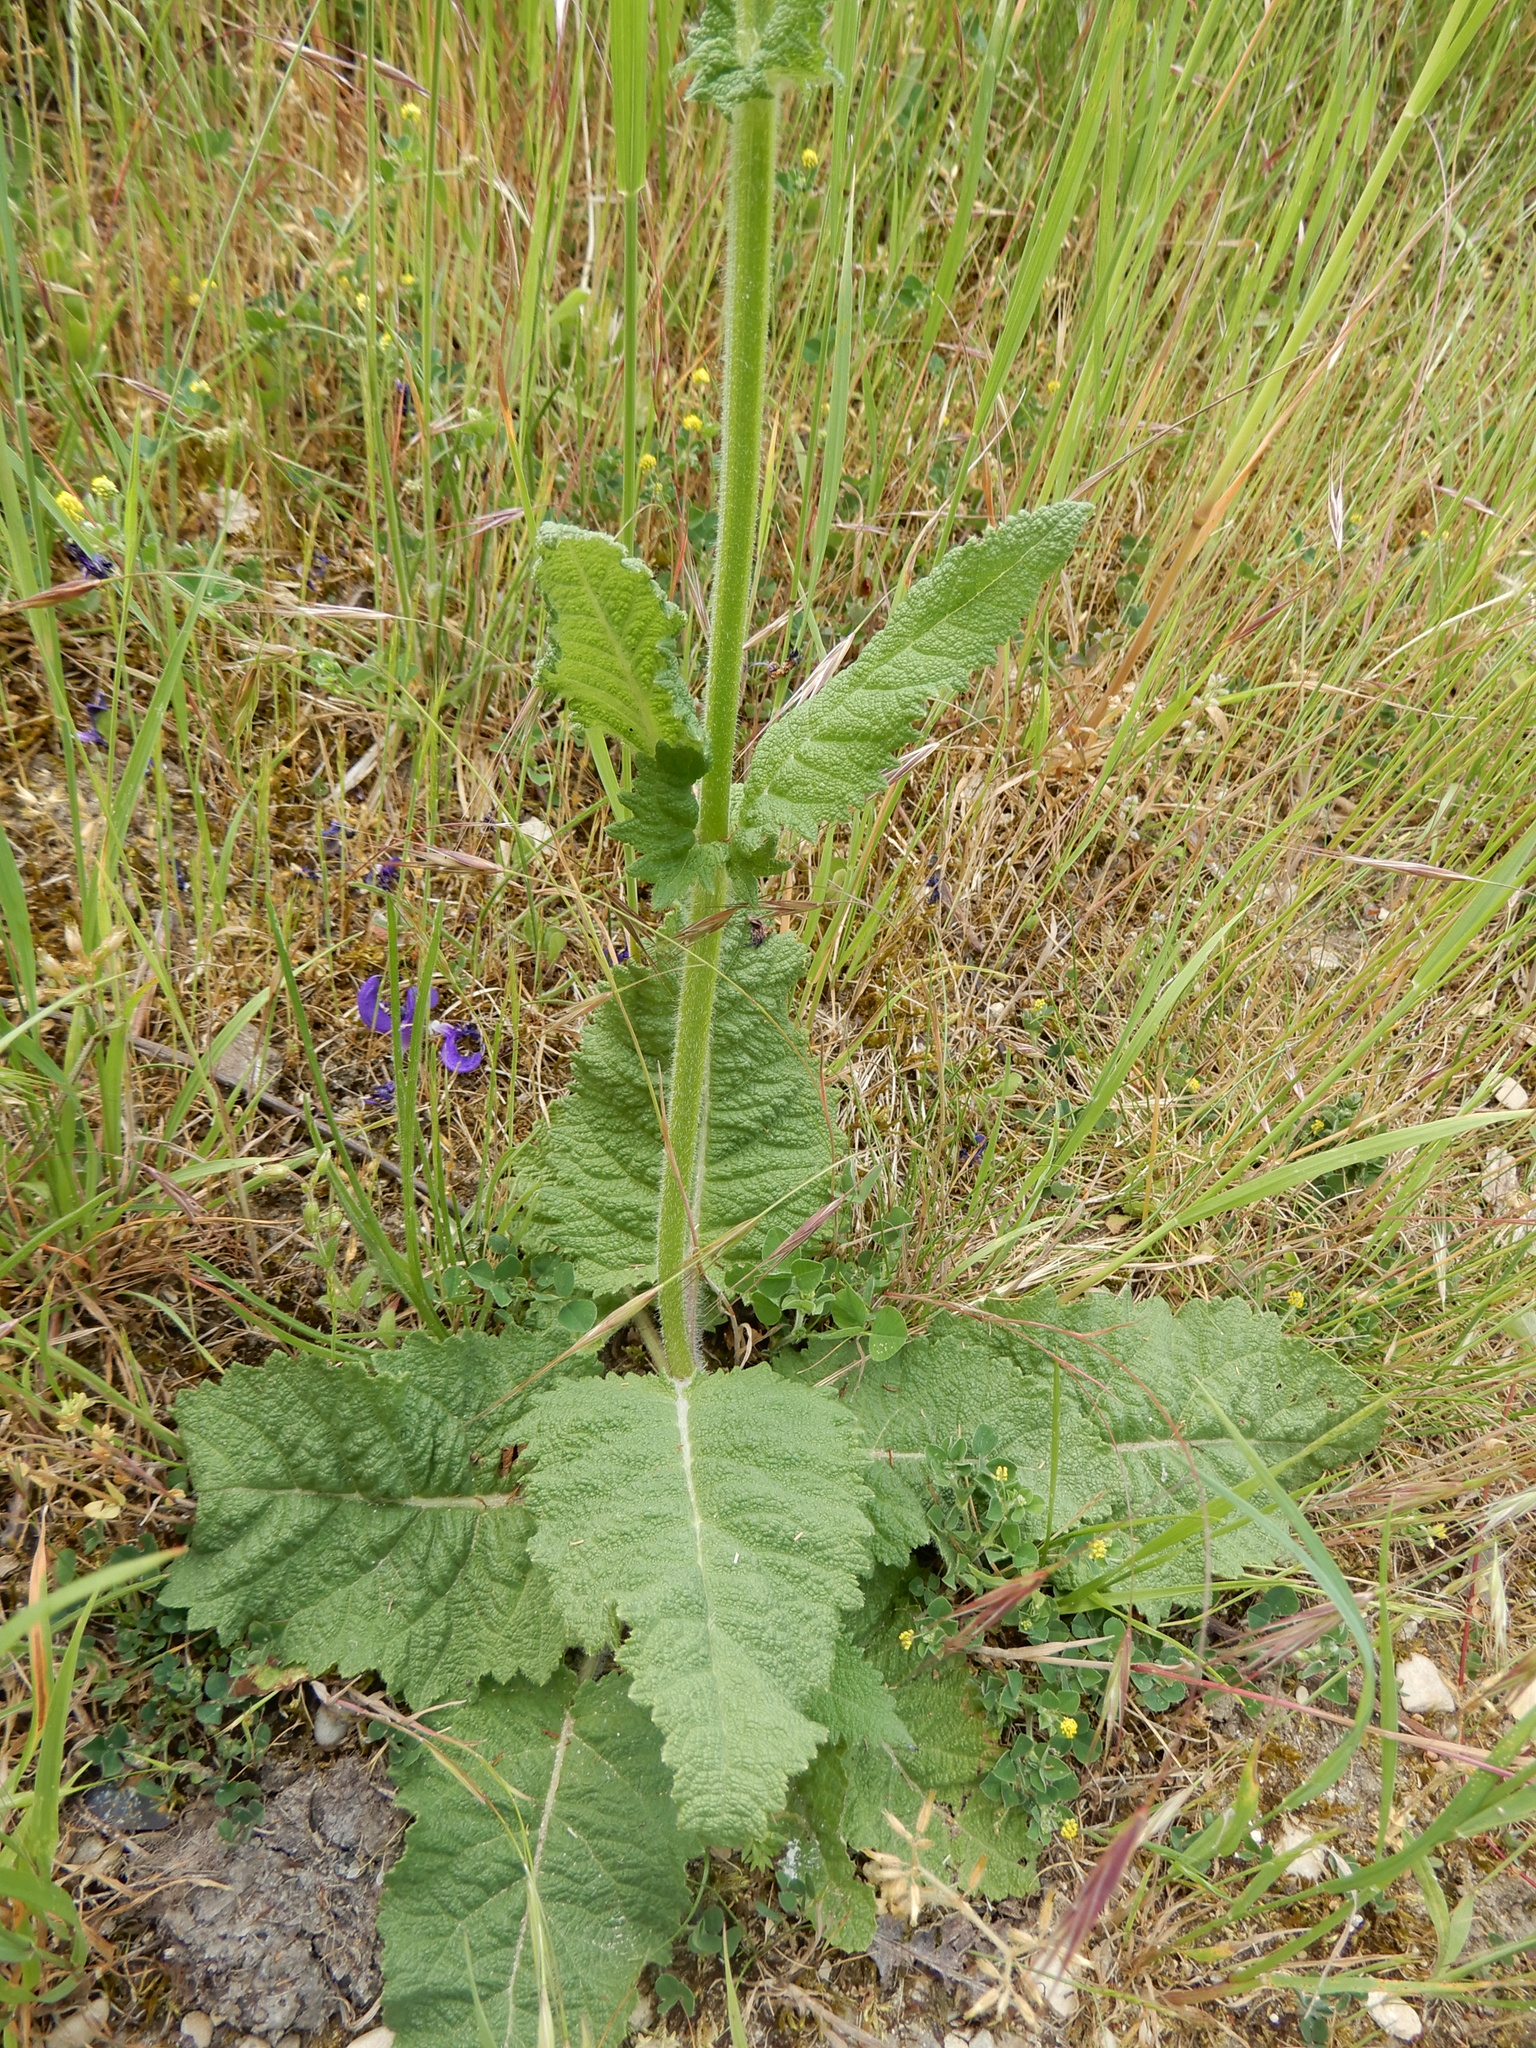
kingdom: Plantae
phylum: Tracheophyta
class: Magnoliopsida
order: Lamiales
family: Lamiaceae
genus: Salvia
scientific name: Salvia pratensis
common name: Meadow sage
